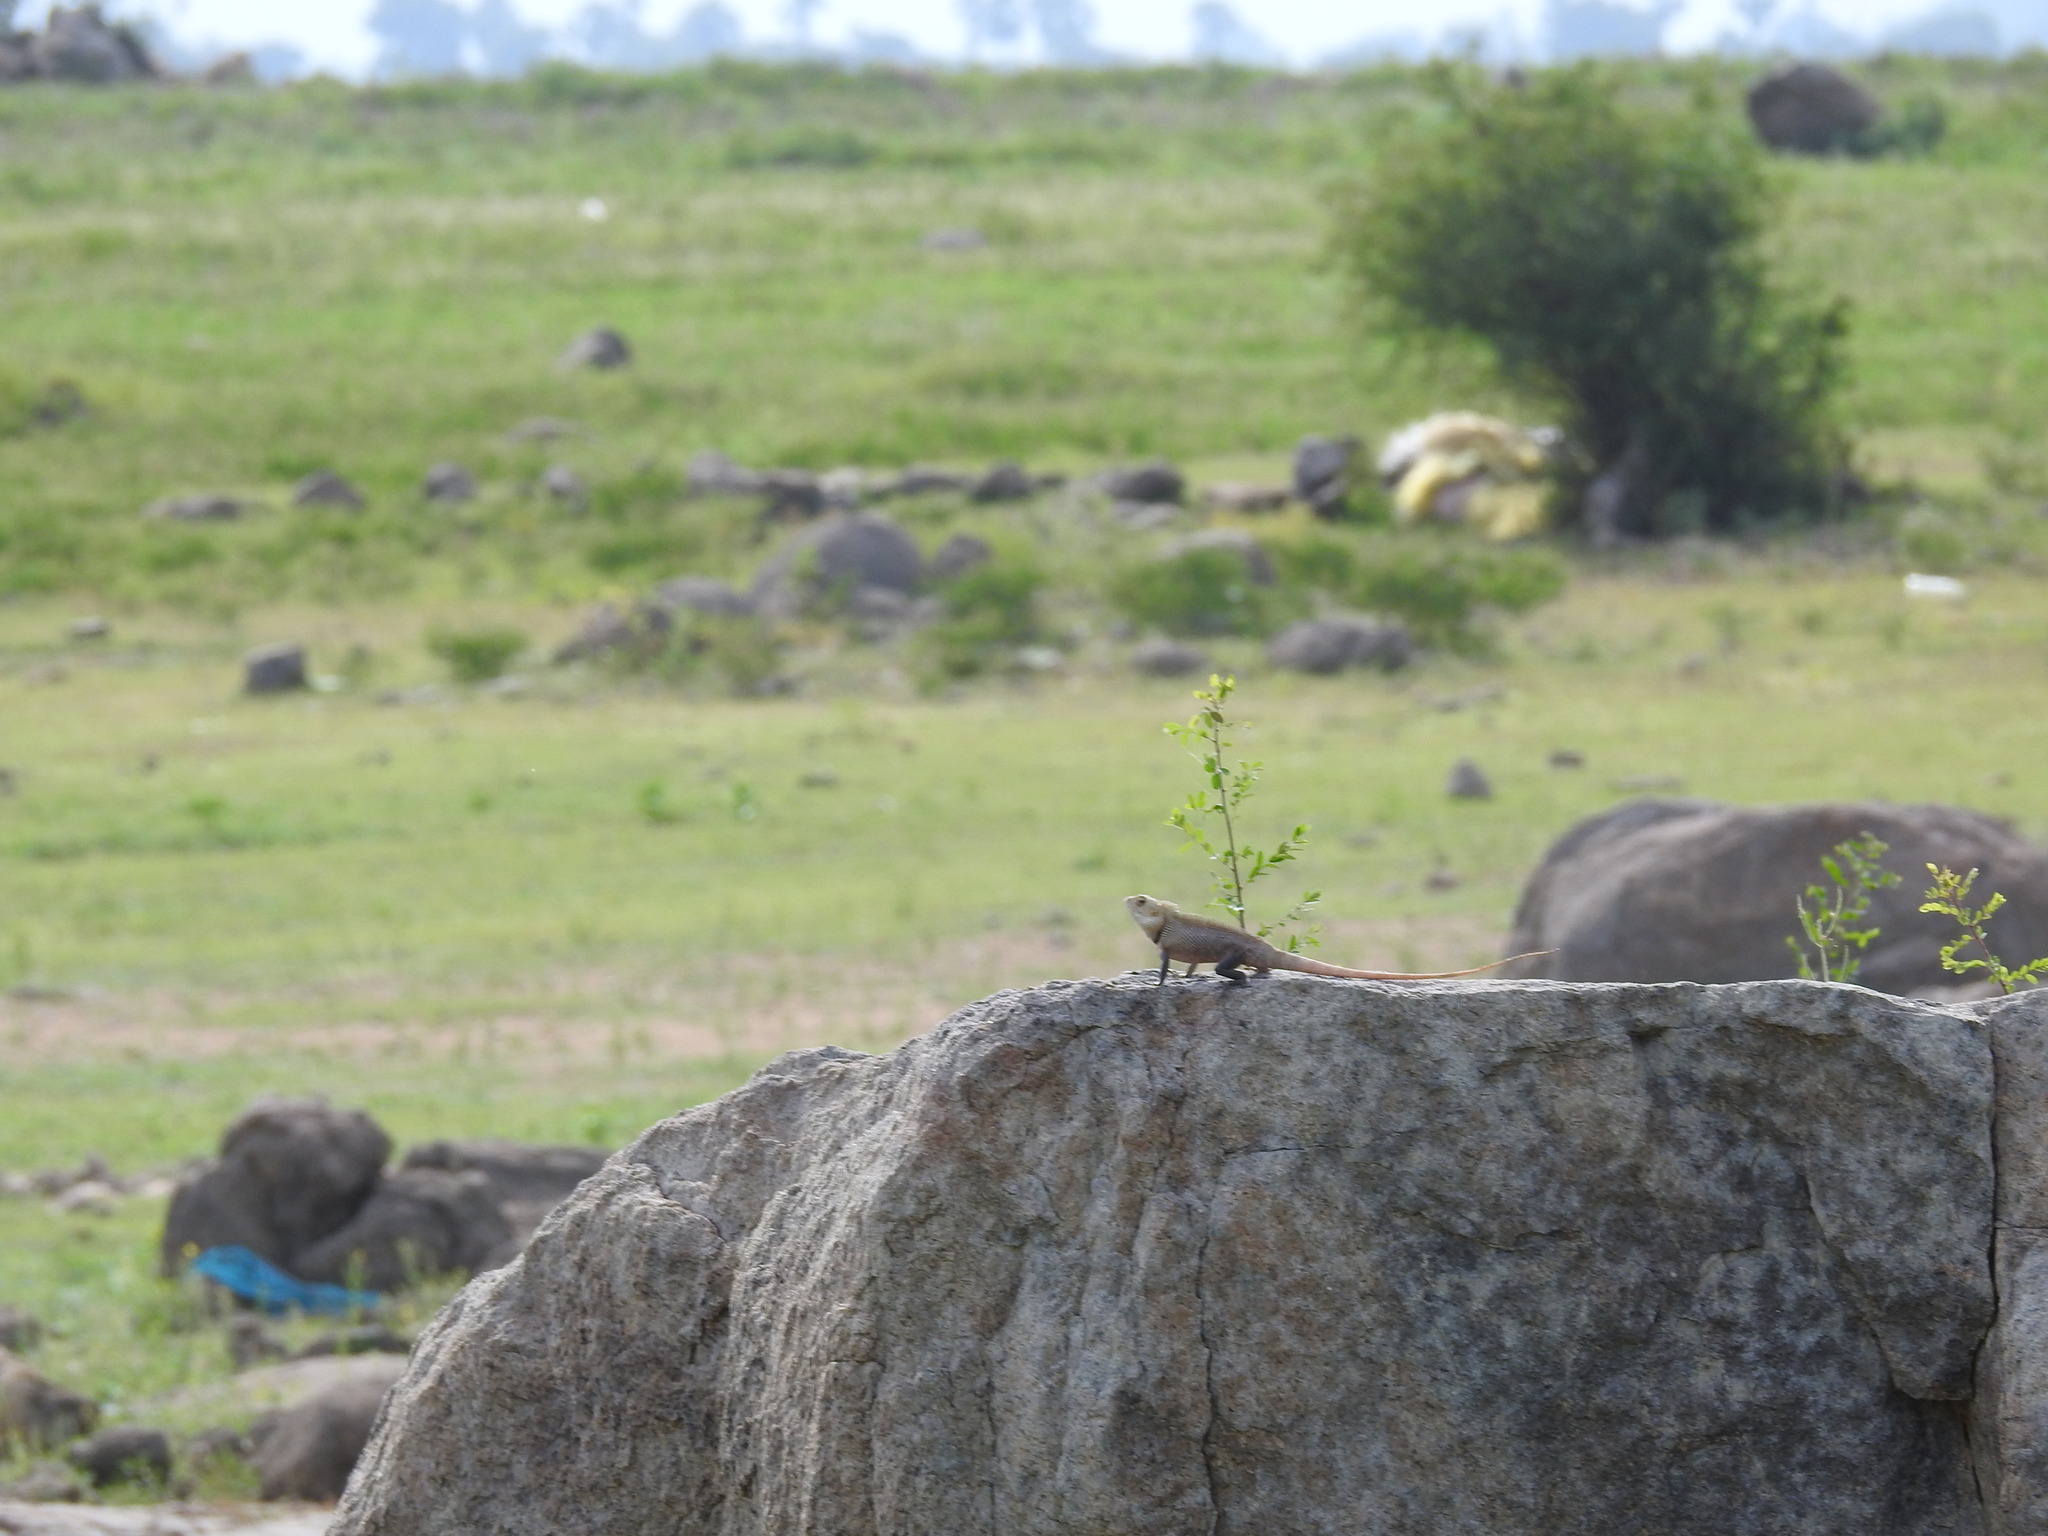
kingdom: Animalia
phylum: Chordata
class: Squamata
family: Agamidae
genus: Calotes
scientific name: Calotes versicolor
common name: Oriental garden lizard
